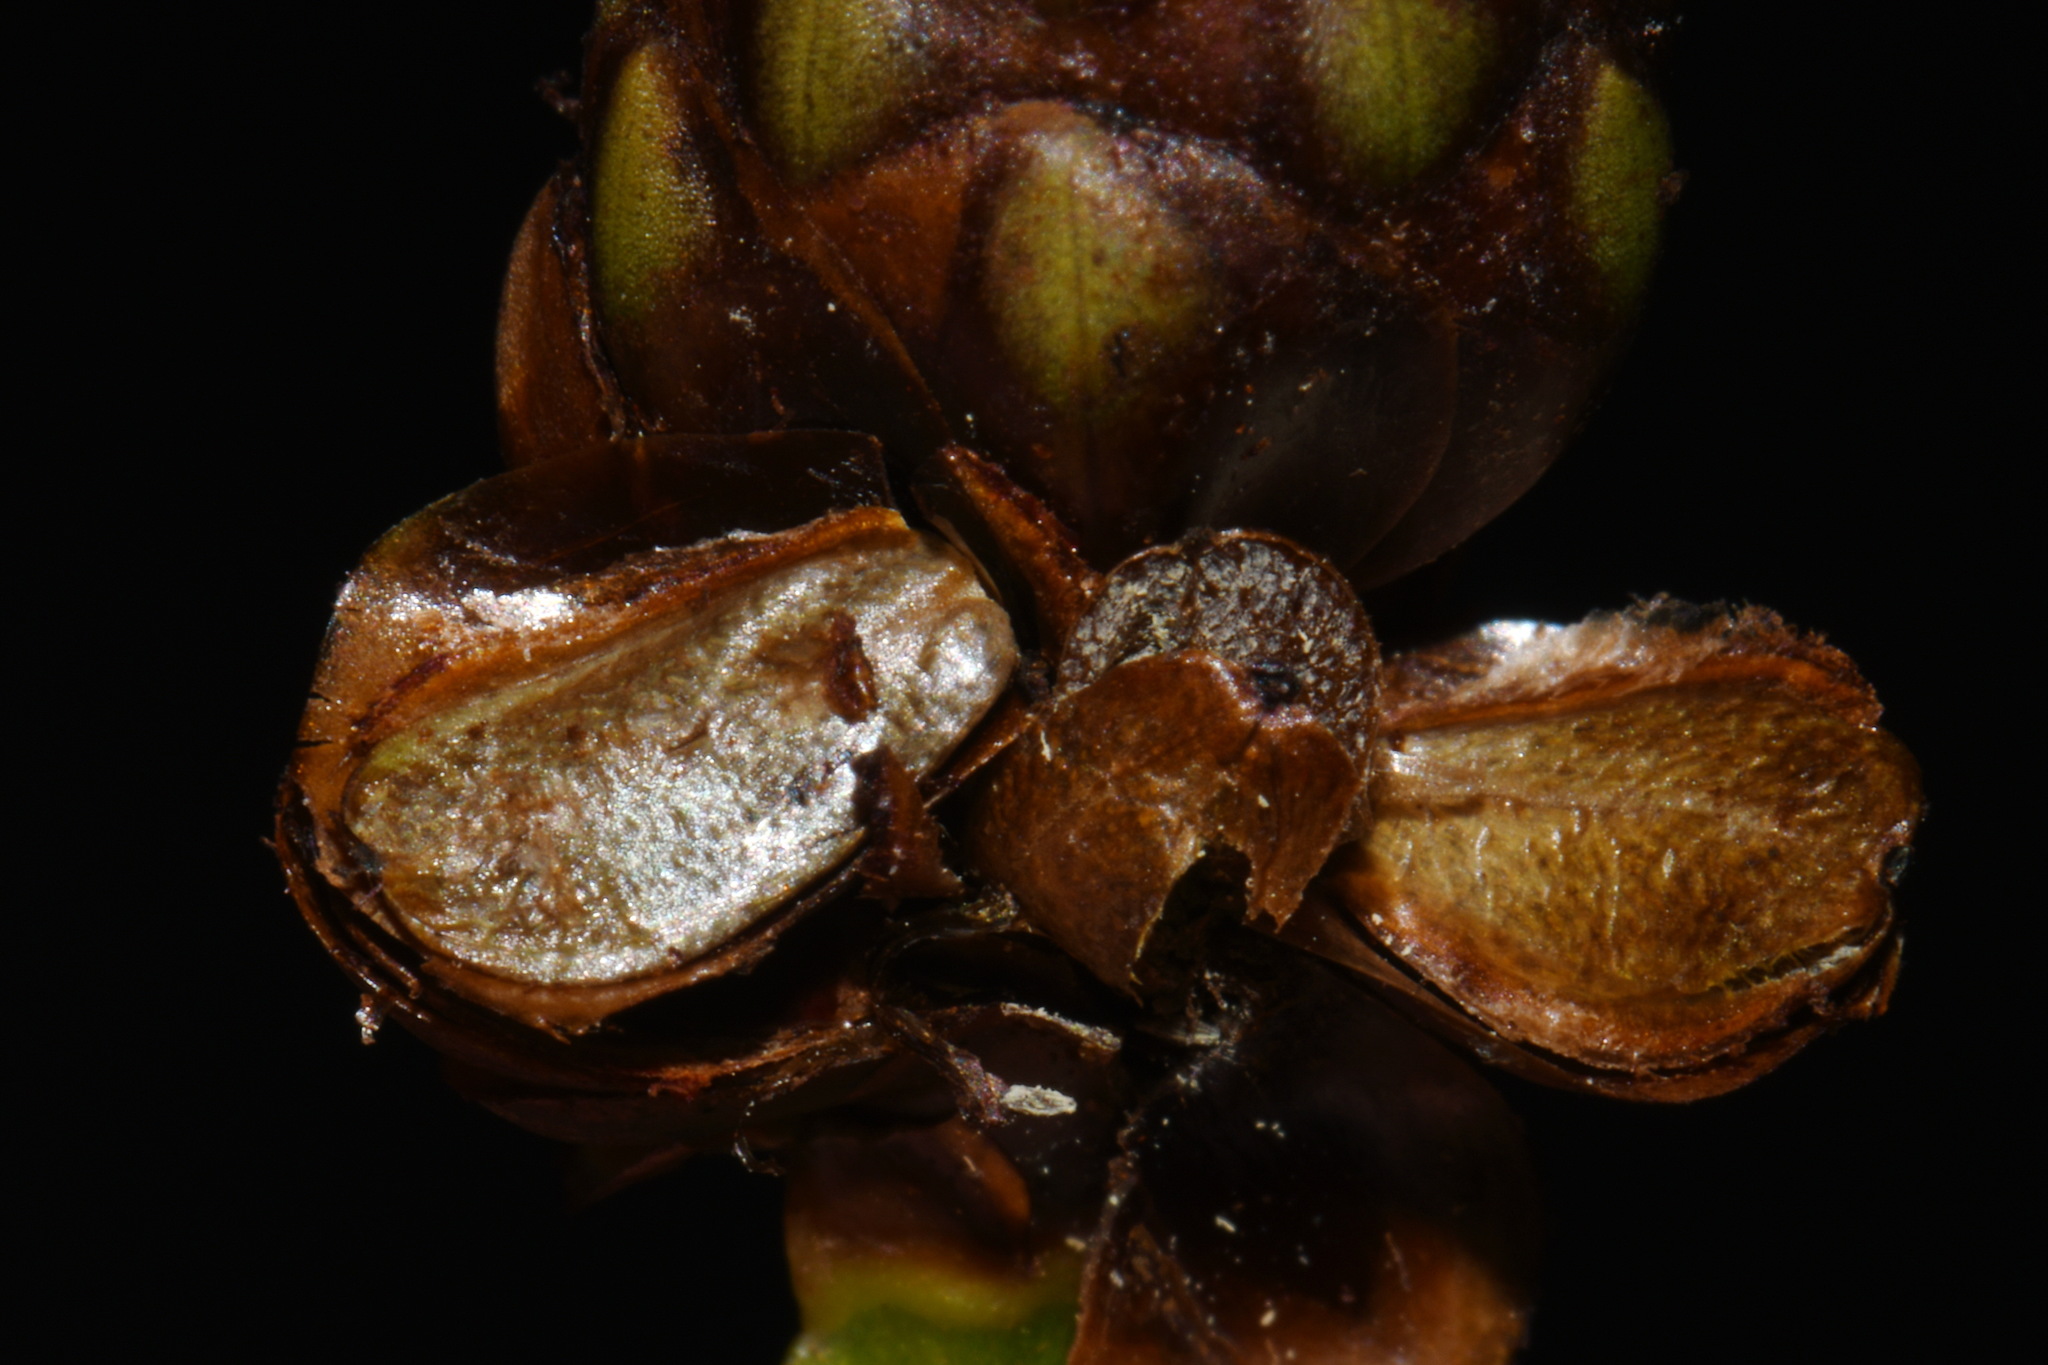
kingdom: Plantae
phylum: Tracheophyta
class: Liliopsida
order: Poales
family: Xyridaceae
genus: Xyris
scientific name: Xyris laxifolia
